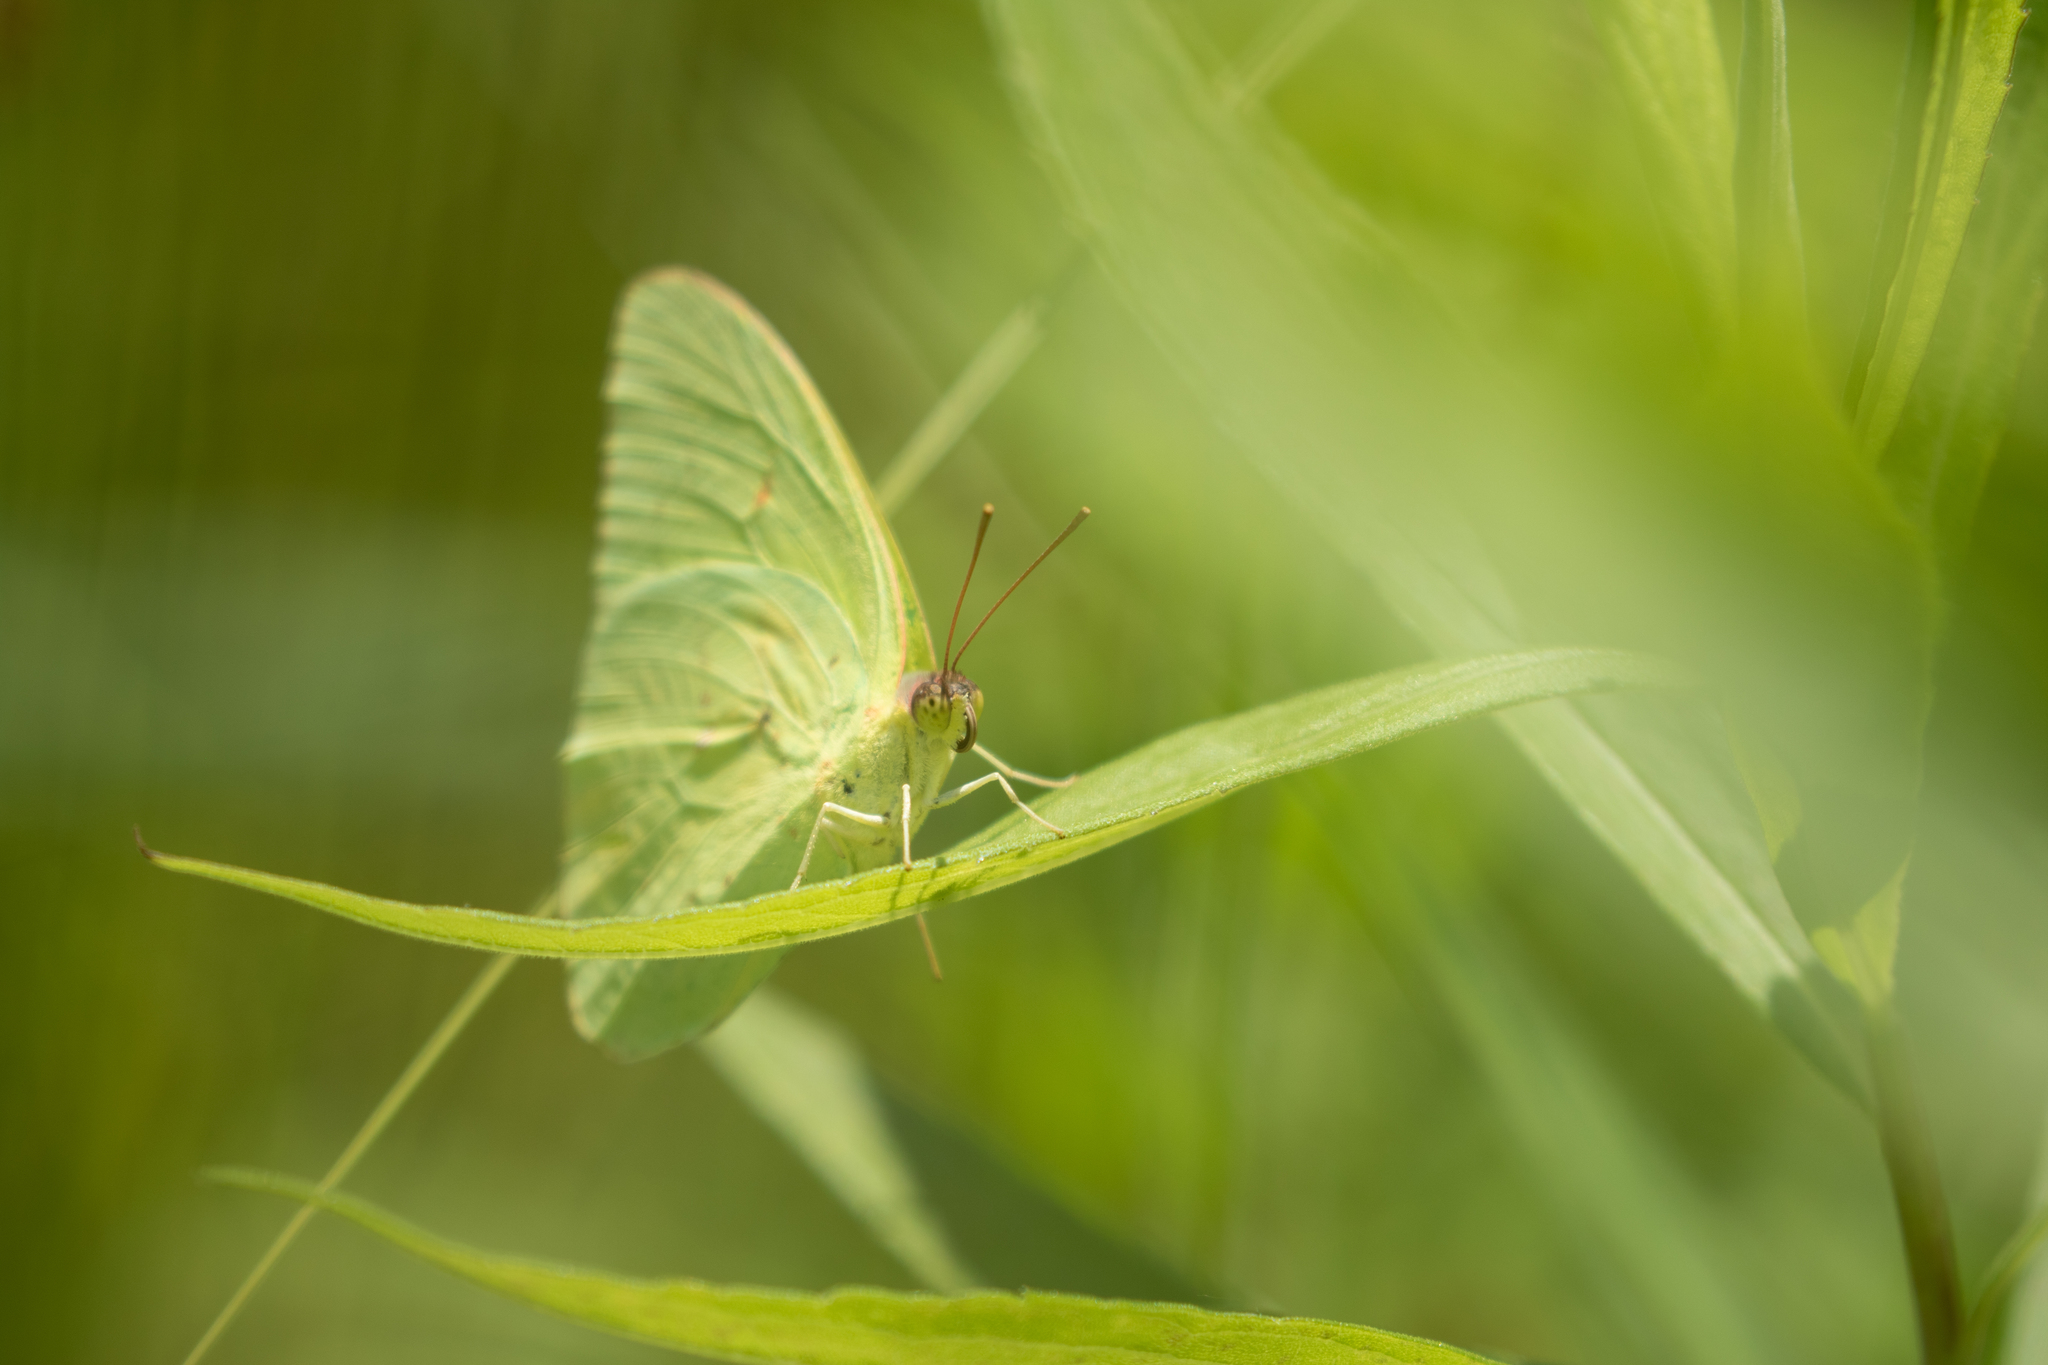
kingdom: Animalia
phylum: Arthropoda
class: Insecta
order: Lepidoptera
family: Pieridae
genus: Phoebis
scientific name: Phoebis sennae
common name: Cloudless sulphur
